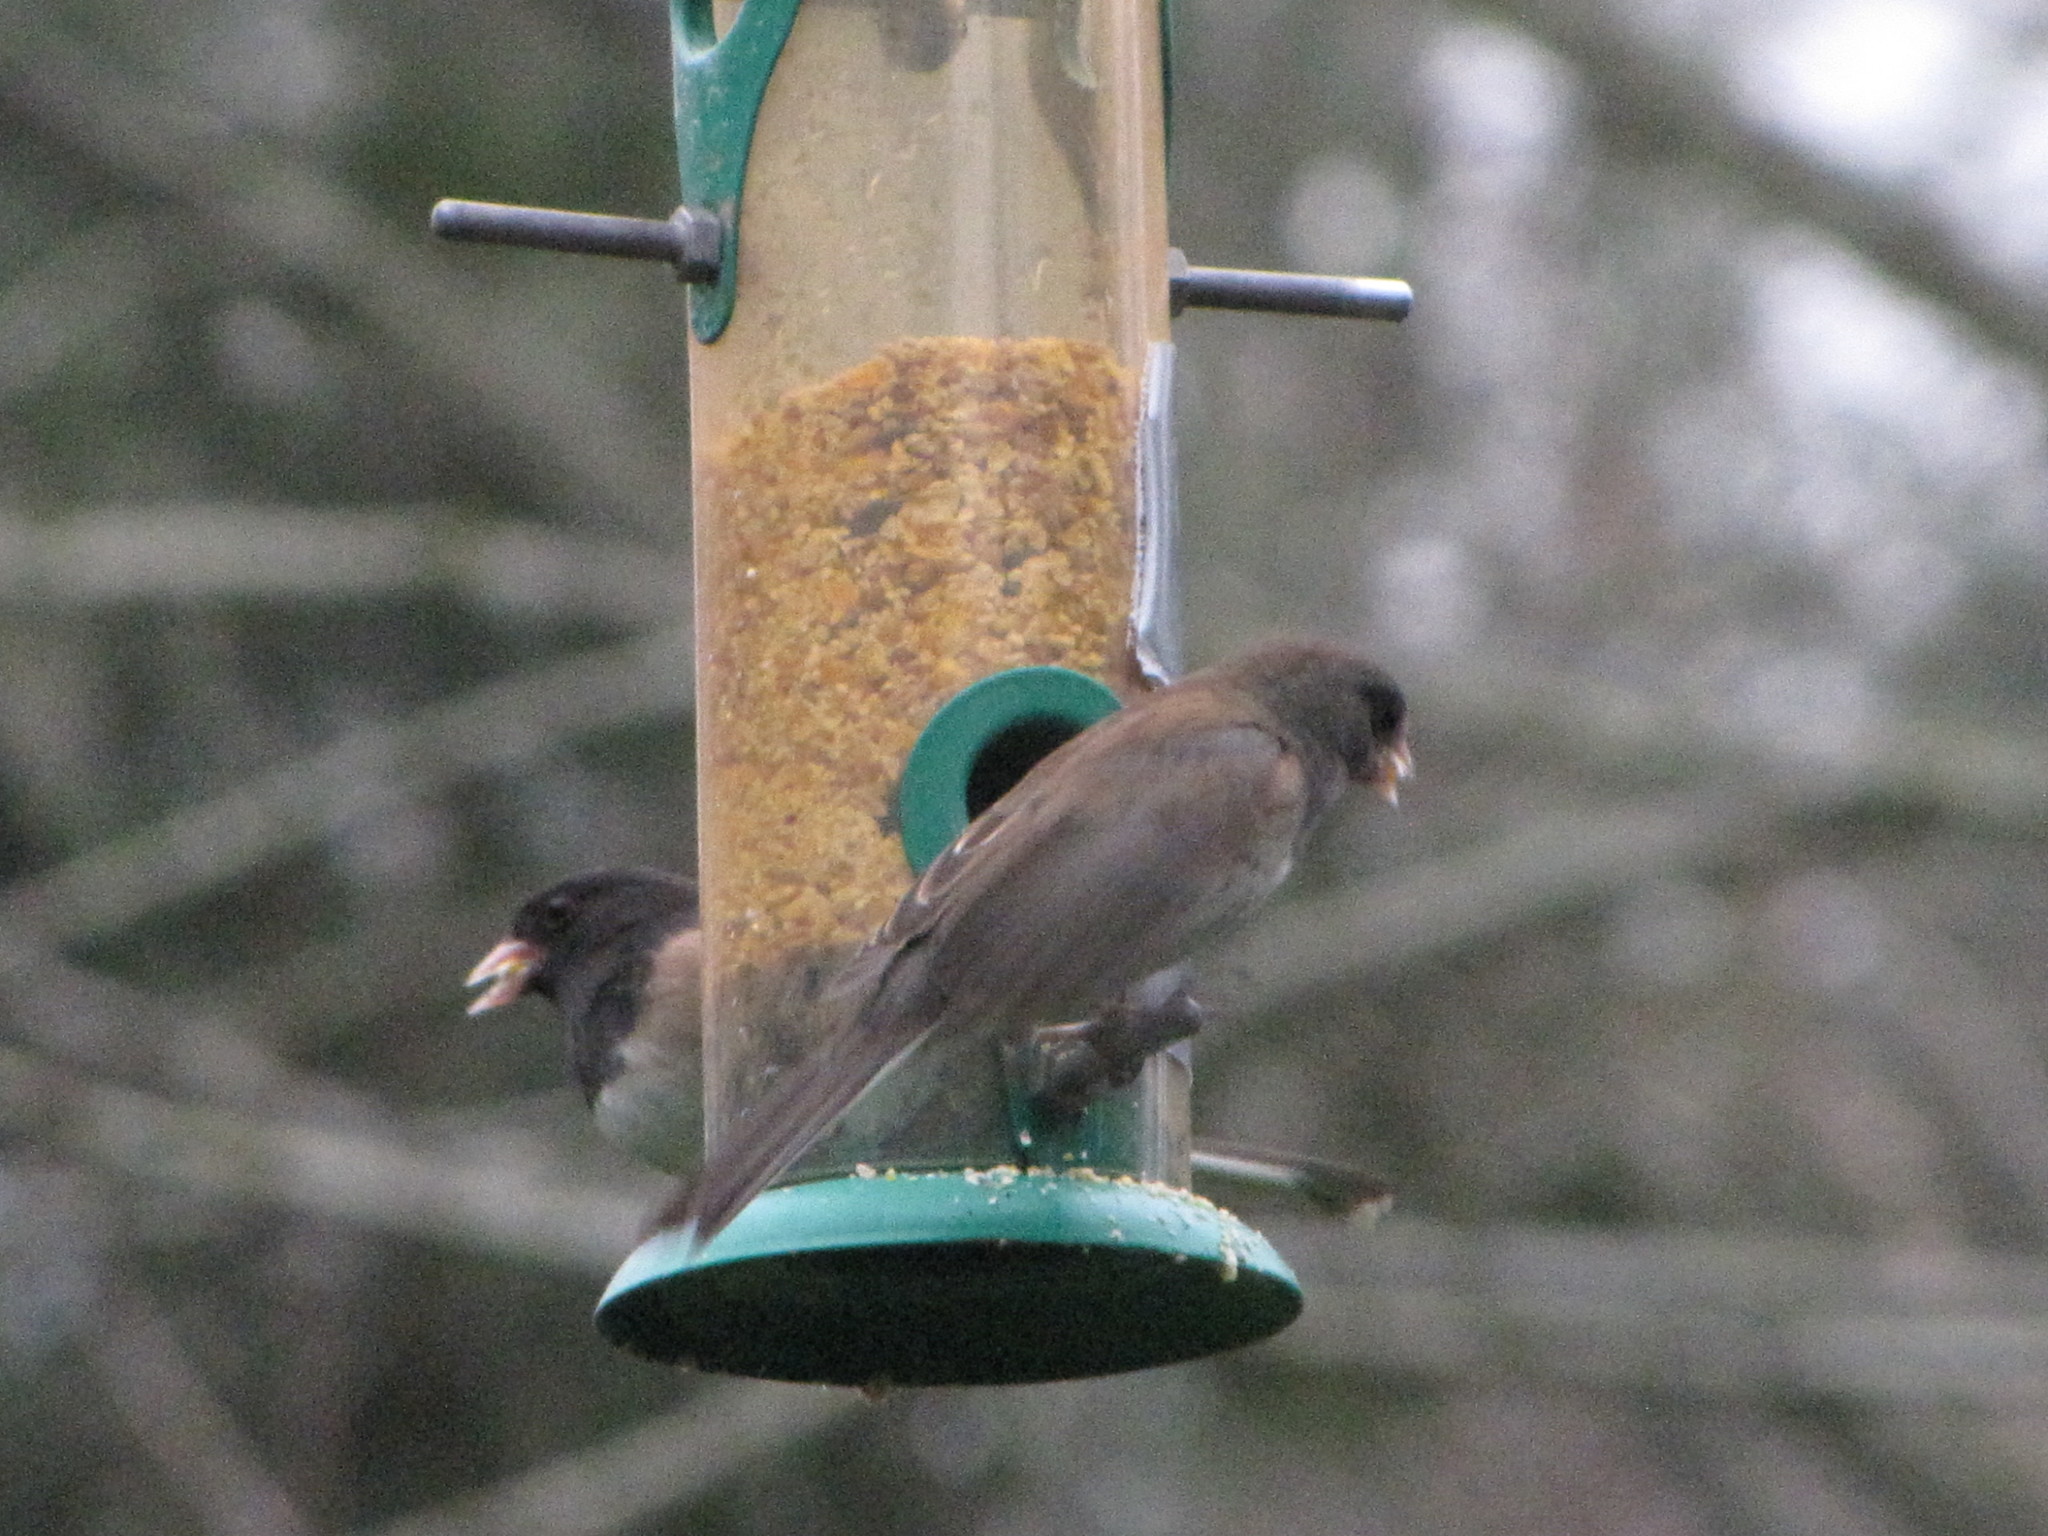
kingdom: Animalia
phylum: Chordata
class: Aves
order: Passeriformes
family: Passerellidae
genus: Junco
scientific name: Junco hyemalis
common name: Dark-eyed junco
